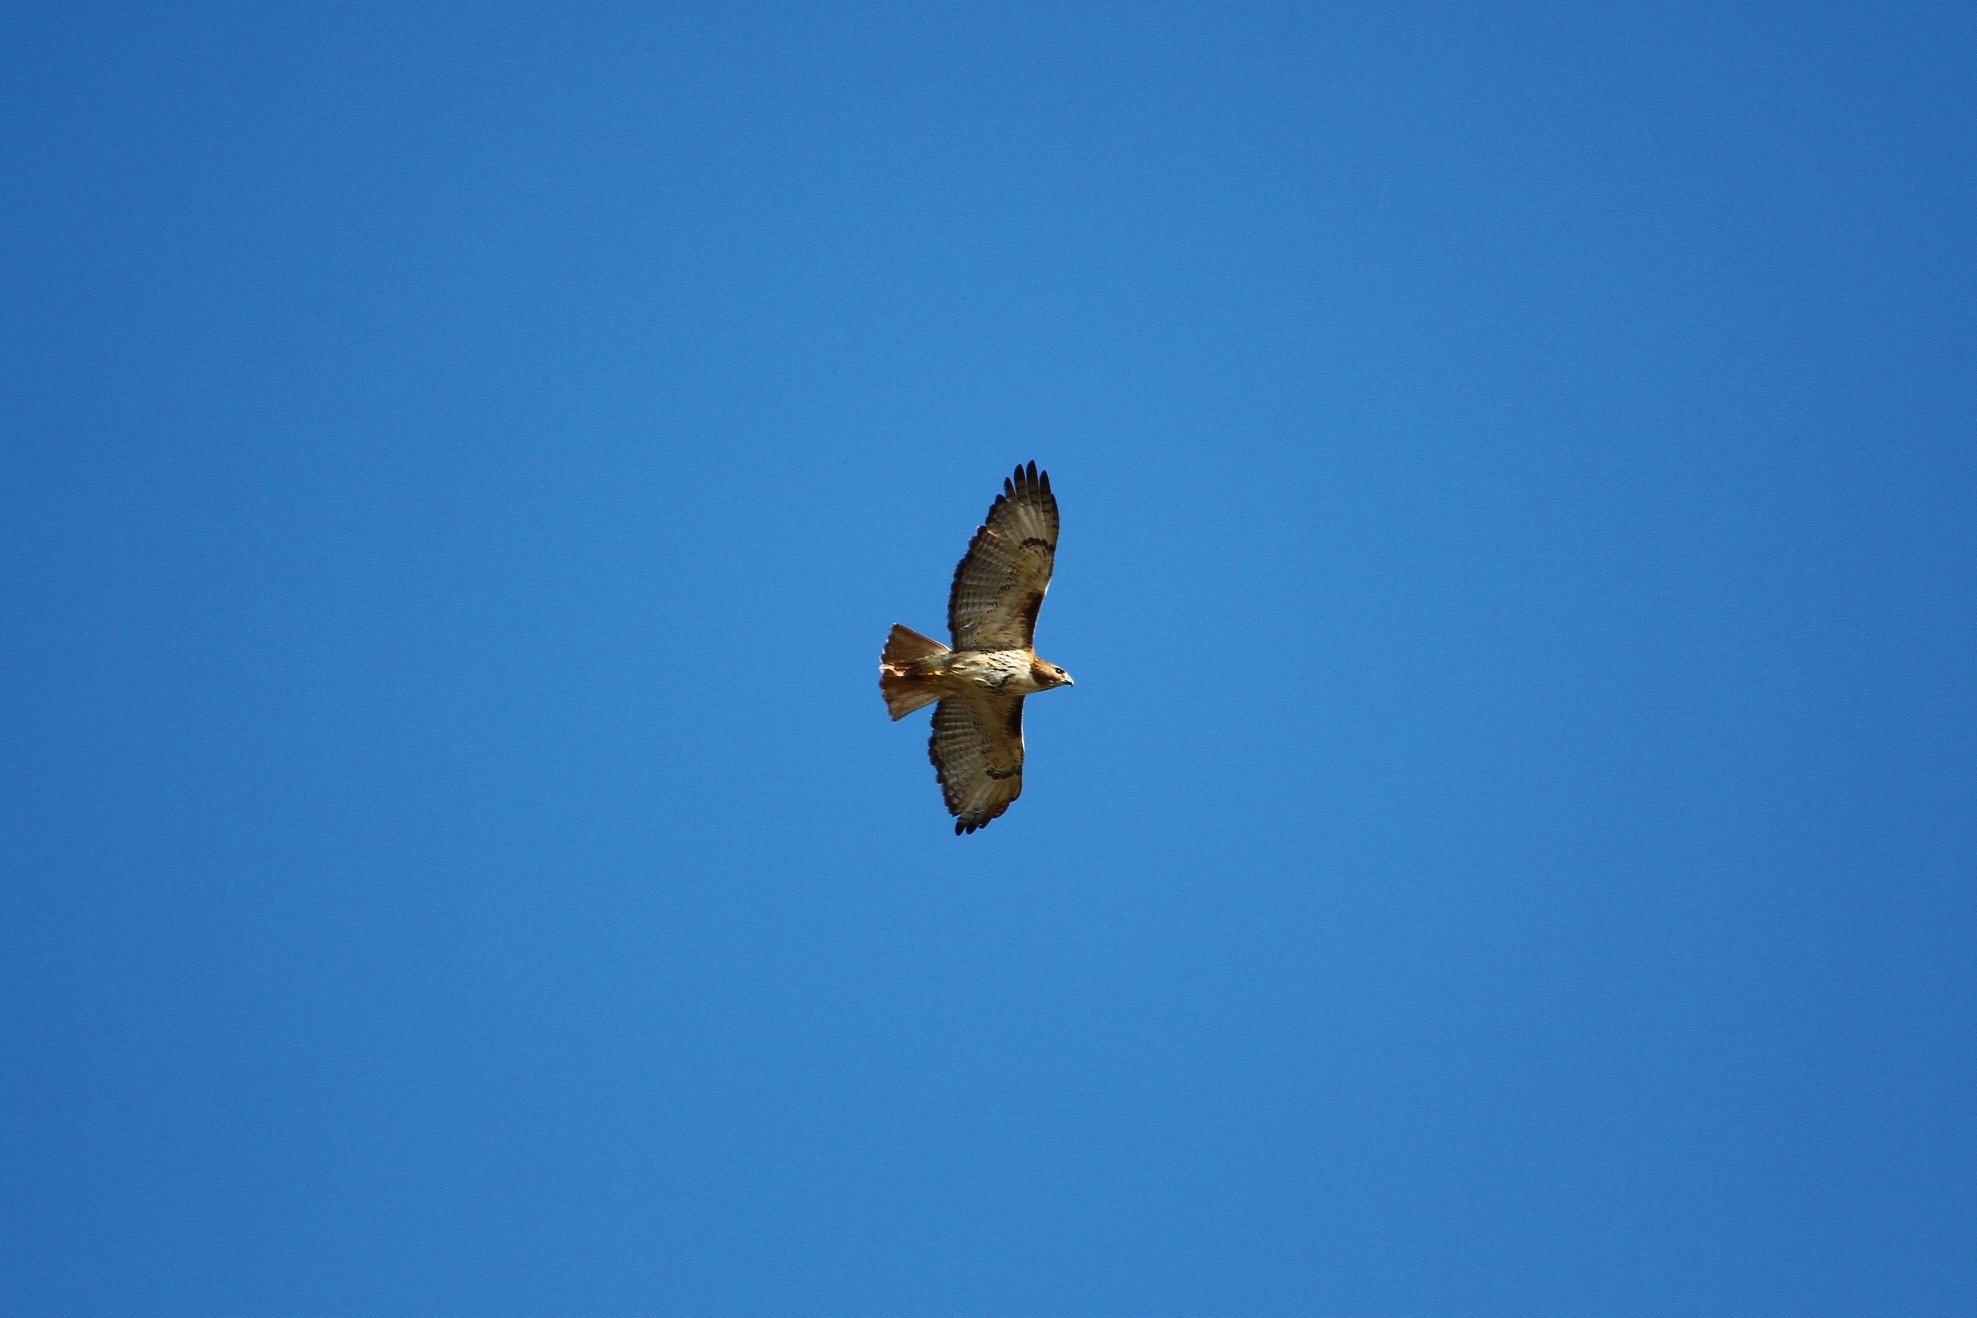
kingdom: Animalia
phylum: Chordata
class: Aves
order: Accipitriformes
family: Accipitridae
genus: Buteo
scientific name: Buteo jamaicensis
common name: Red-tailed hawk
